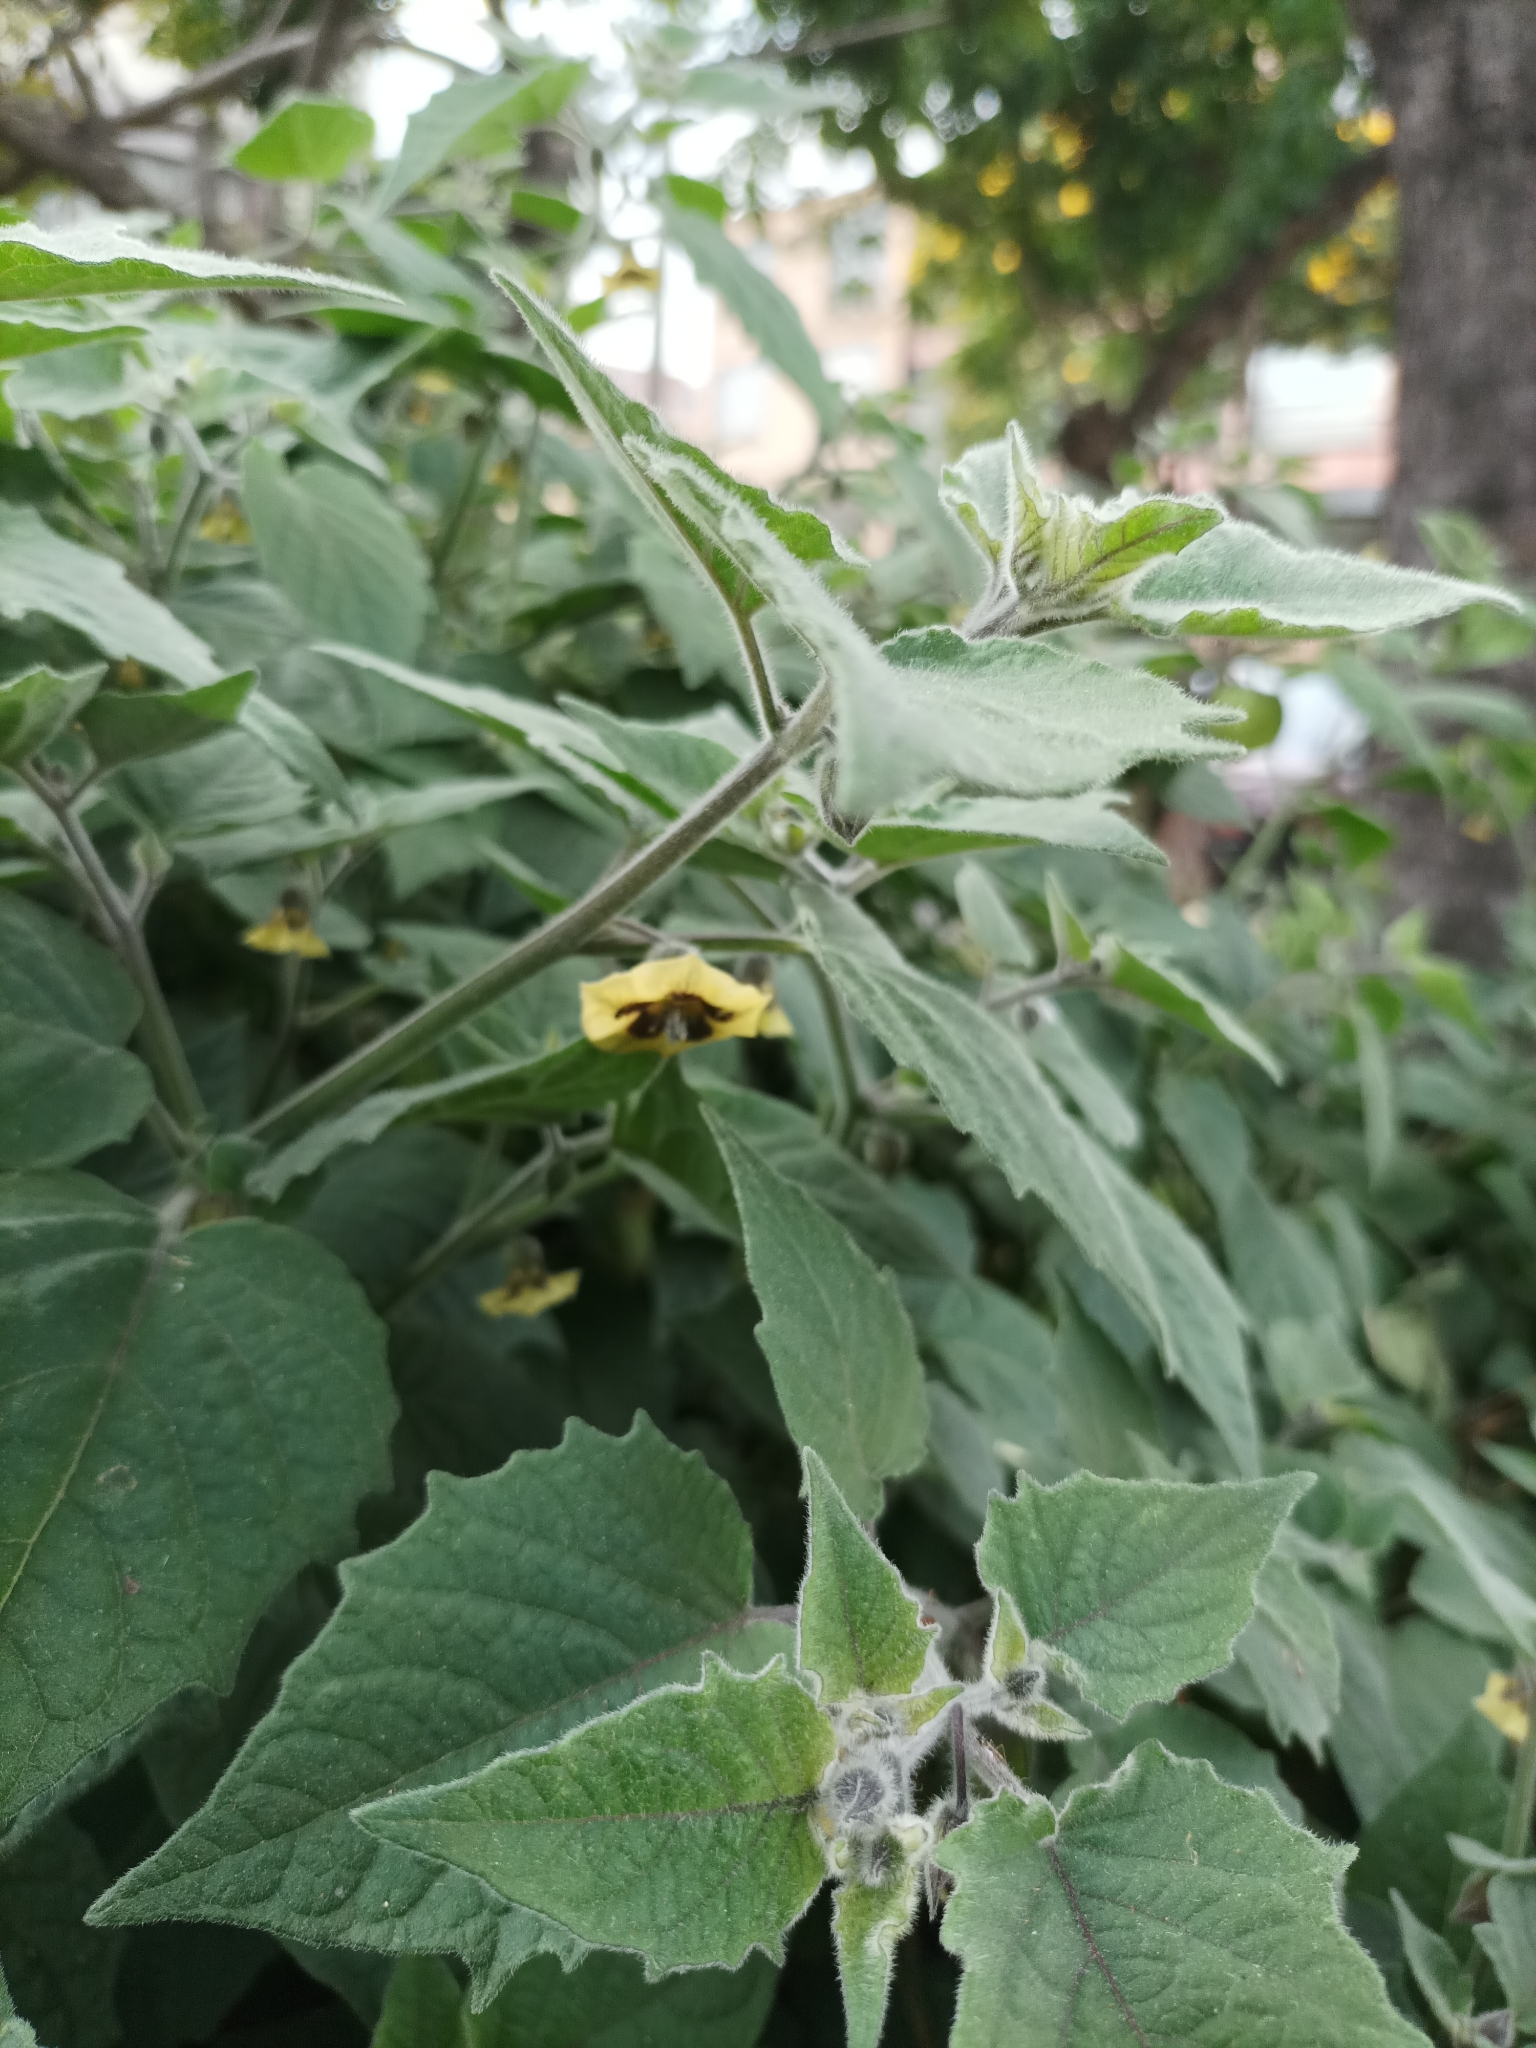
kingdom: Plantae
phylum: Tracheophyta
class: Magnoliopsida
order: Solanales
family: Solanaceae
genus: Physalis
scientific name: Physalis peruviana
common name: Cape-gooseberry
